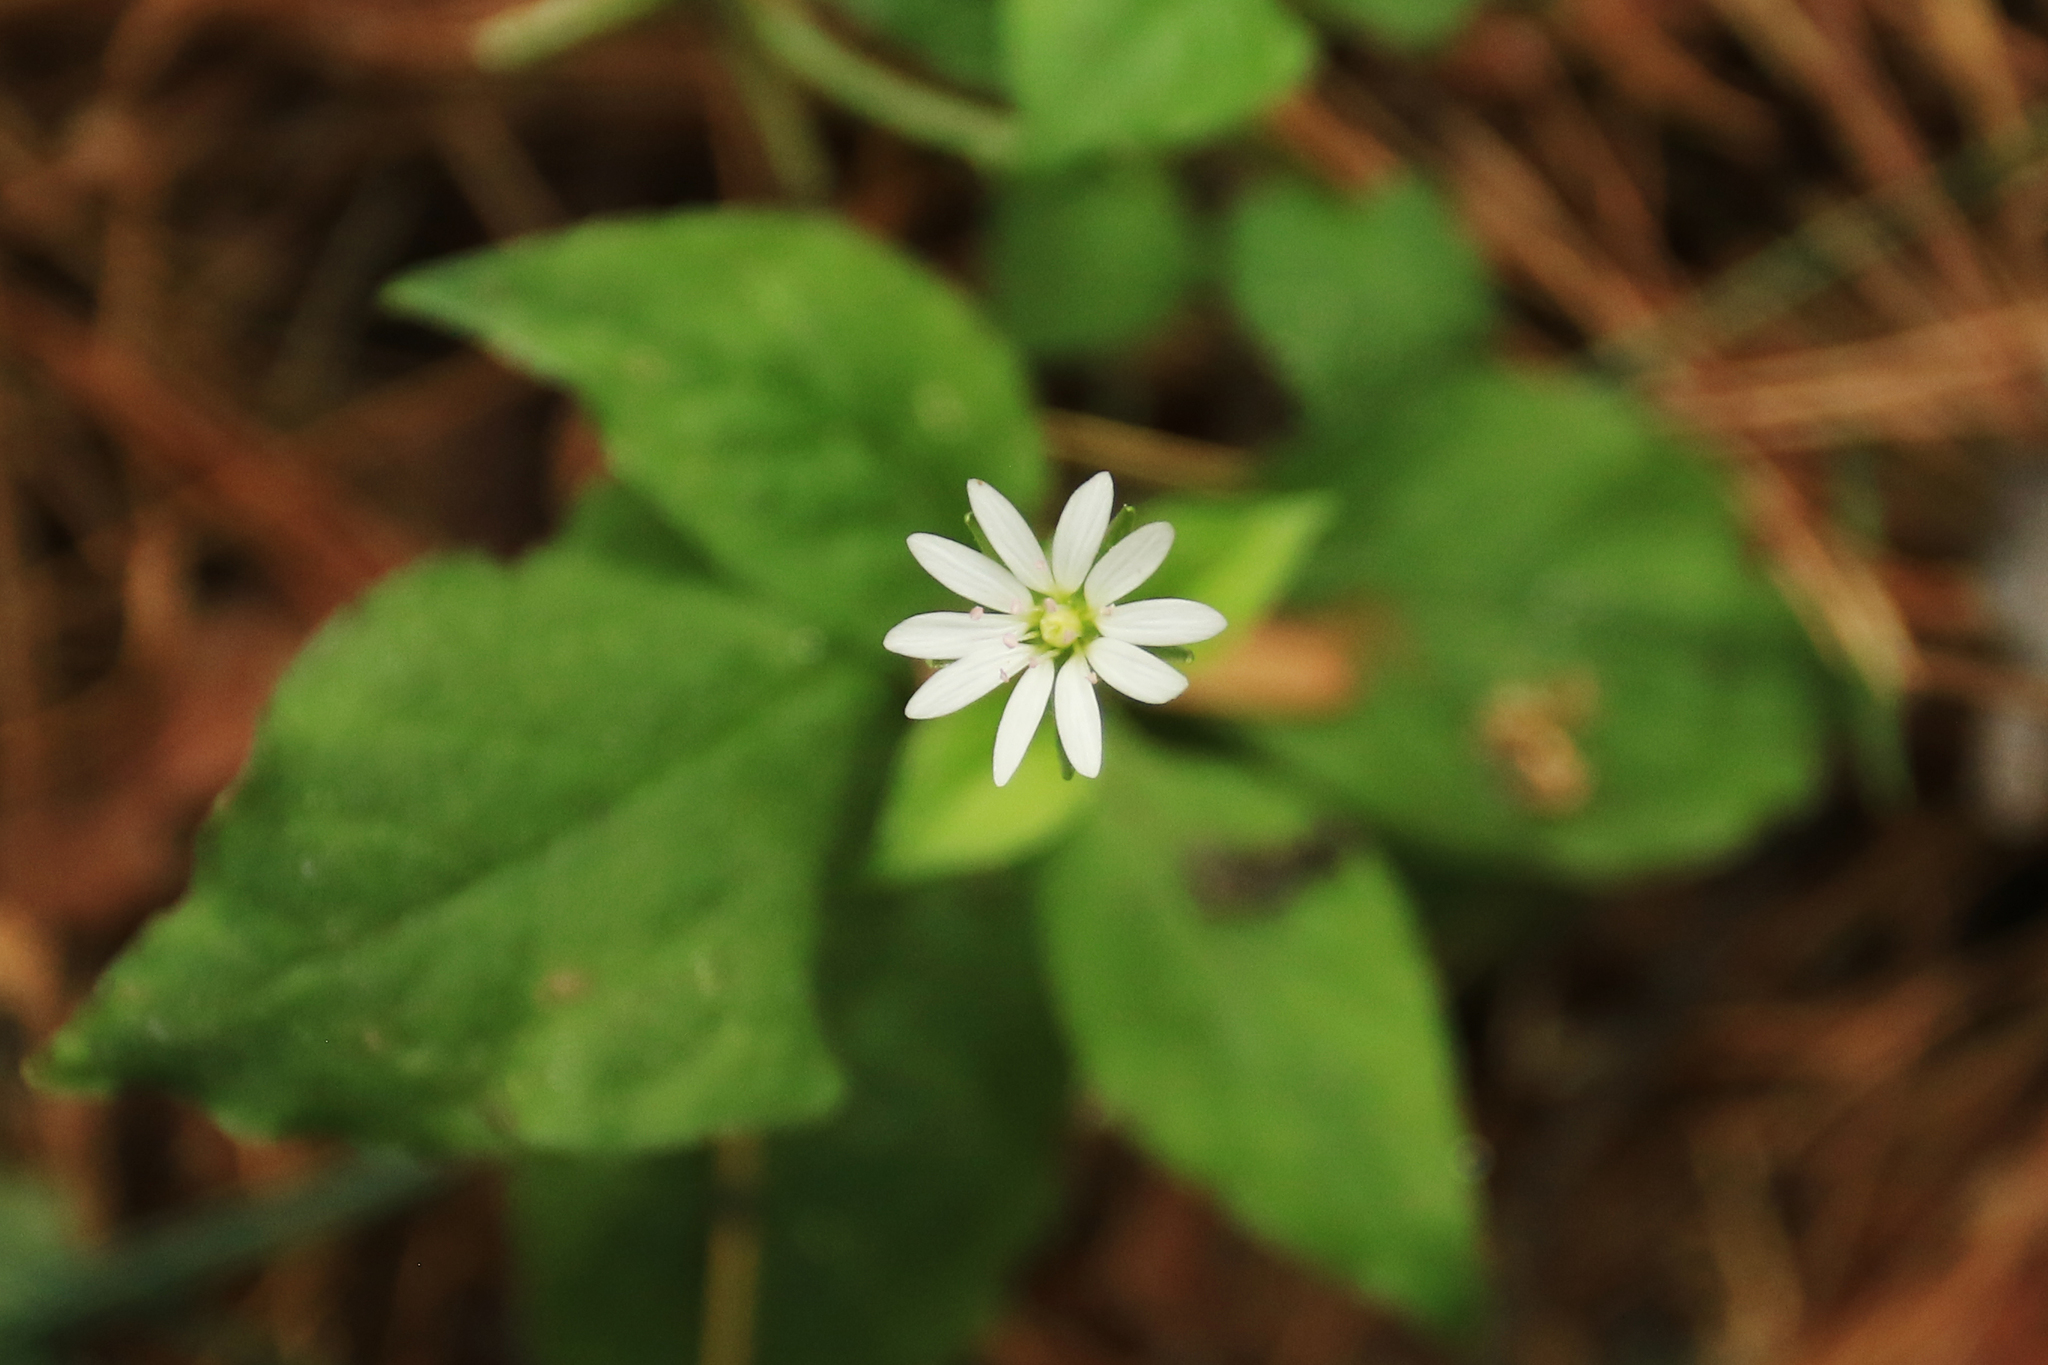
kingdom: Plantae
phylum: Tracheophyta
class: Magnoliopsida
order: Caryophyllales
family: Caryophyllaceae
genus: Stellaria
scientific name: Stellaria bungeana
